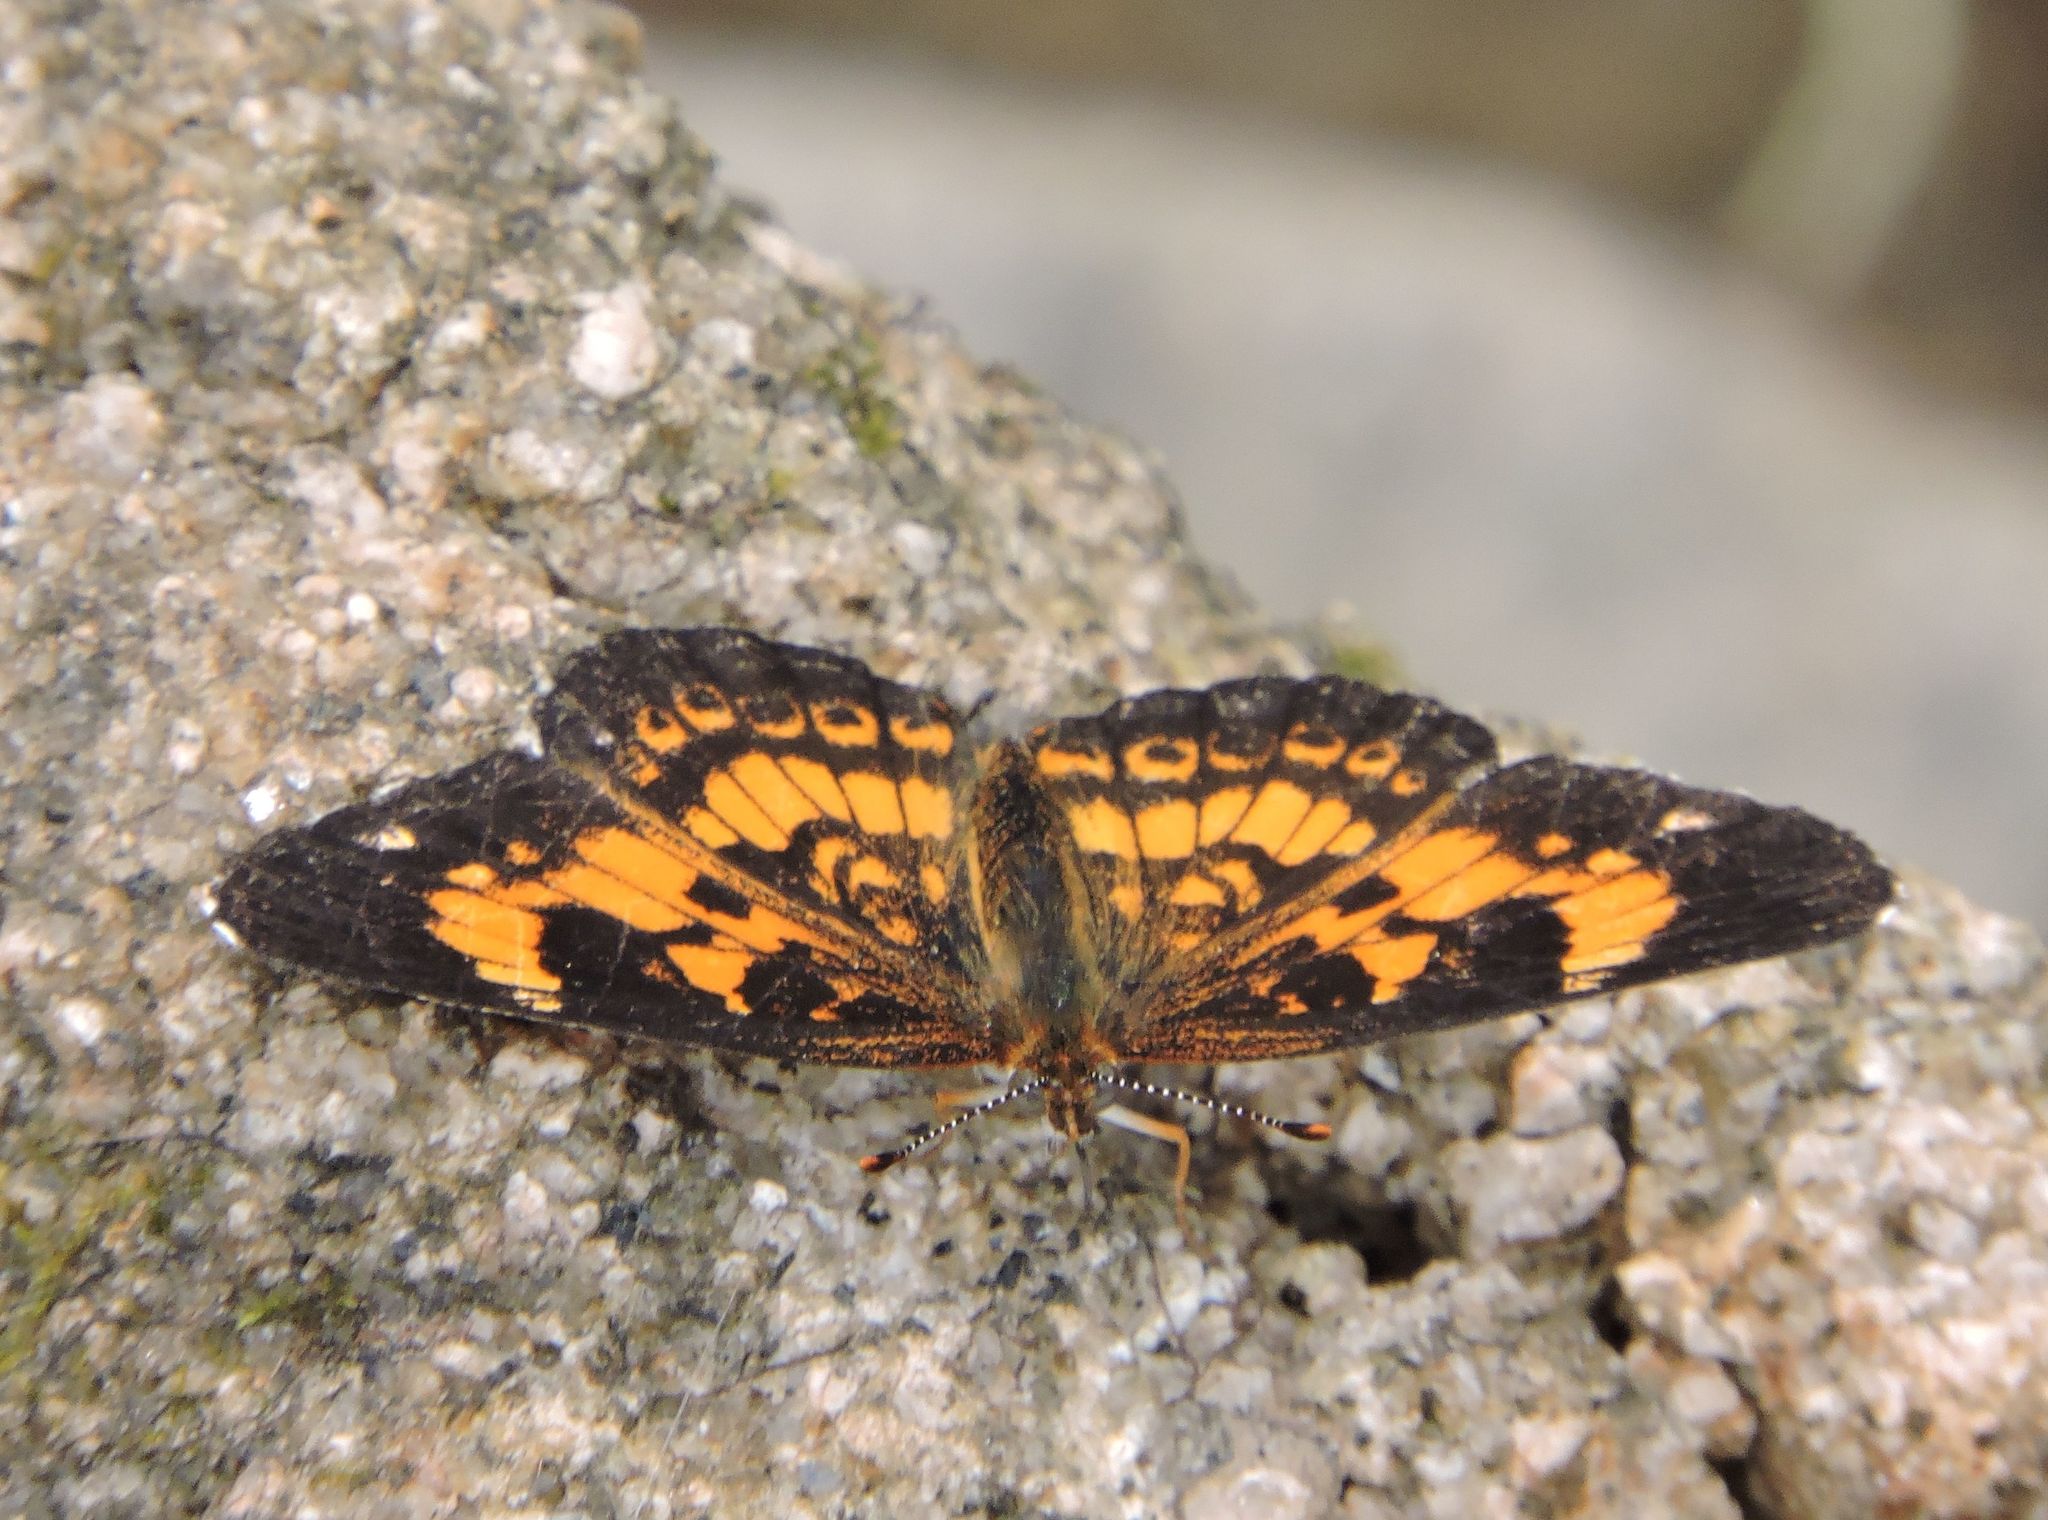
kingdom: Animalia
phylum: Arthropoda
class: Insecta
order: Lepidoptera
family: Nymphalidae
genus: Chlosyne
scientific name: Chlosyne nycteis
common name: Silvery checkerspot
